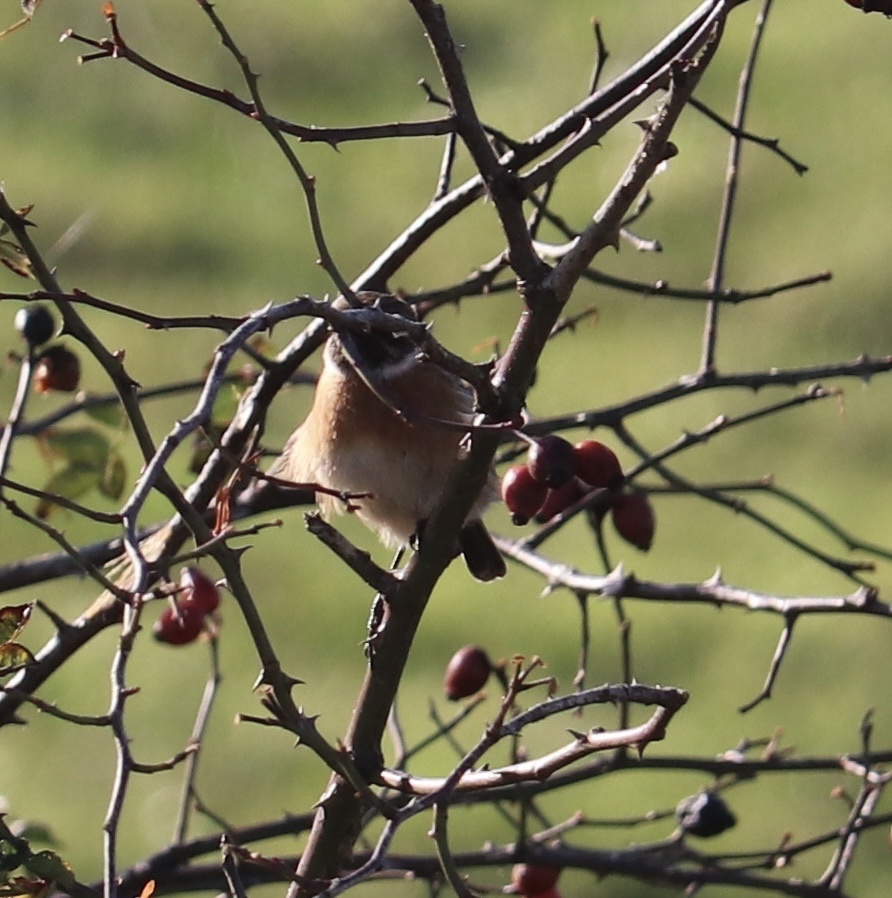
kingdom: Animalia
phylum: Chordata
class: Aves
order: Passeriformes
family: Muscicapidae
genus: Saxicola
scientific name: Saxicola rubicola
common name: European stonechat
